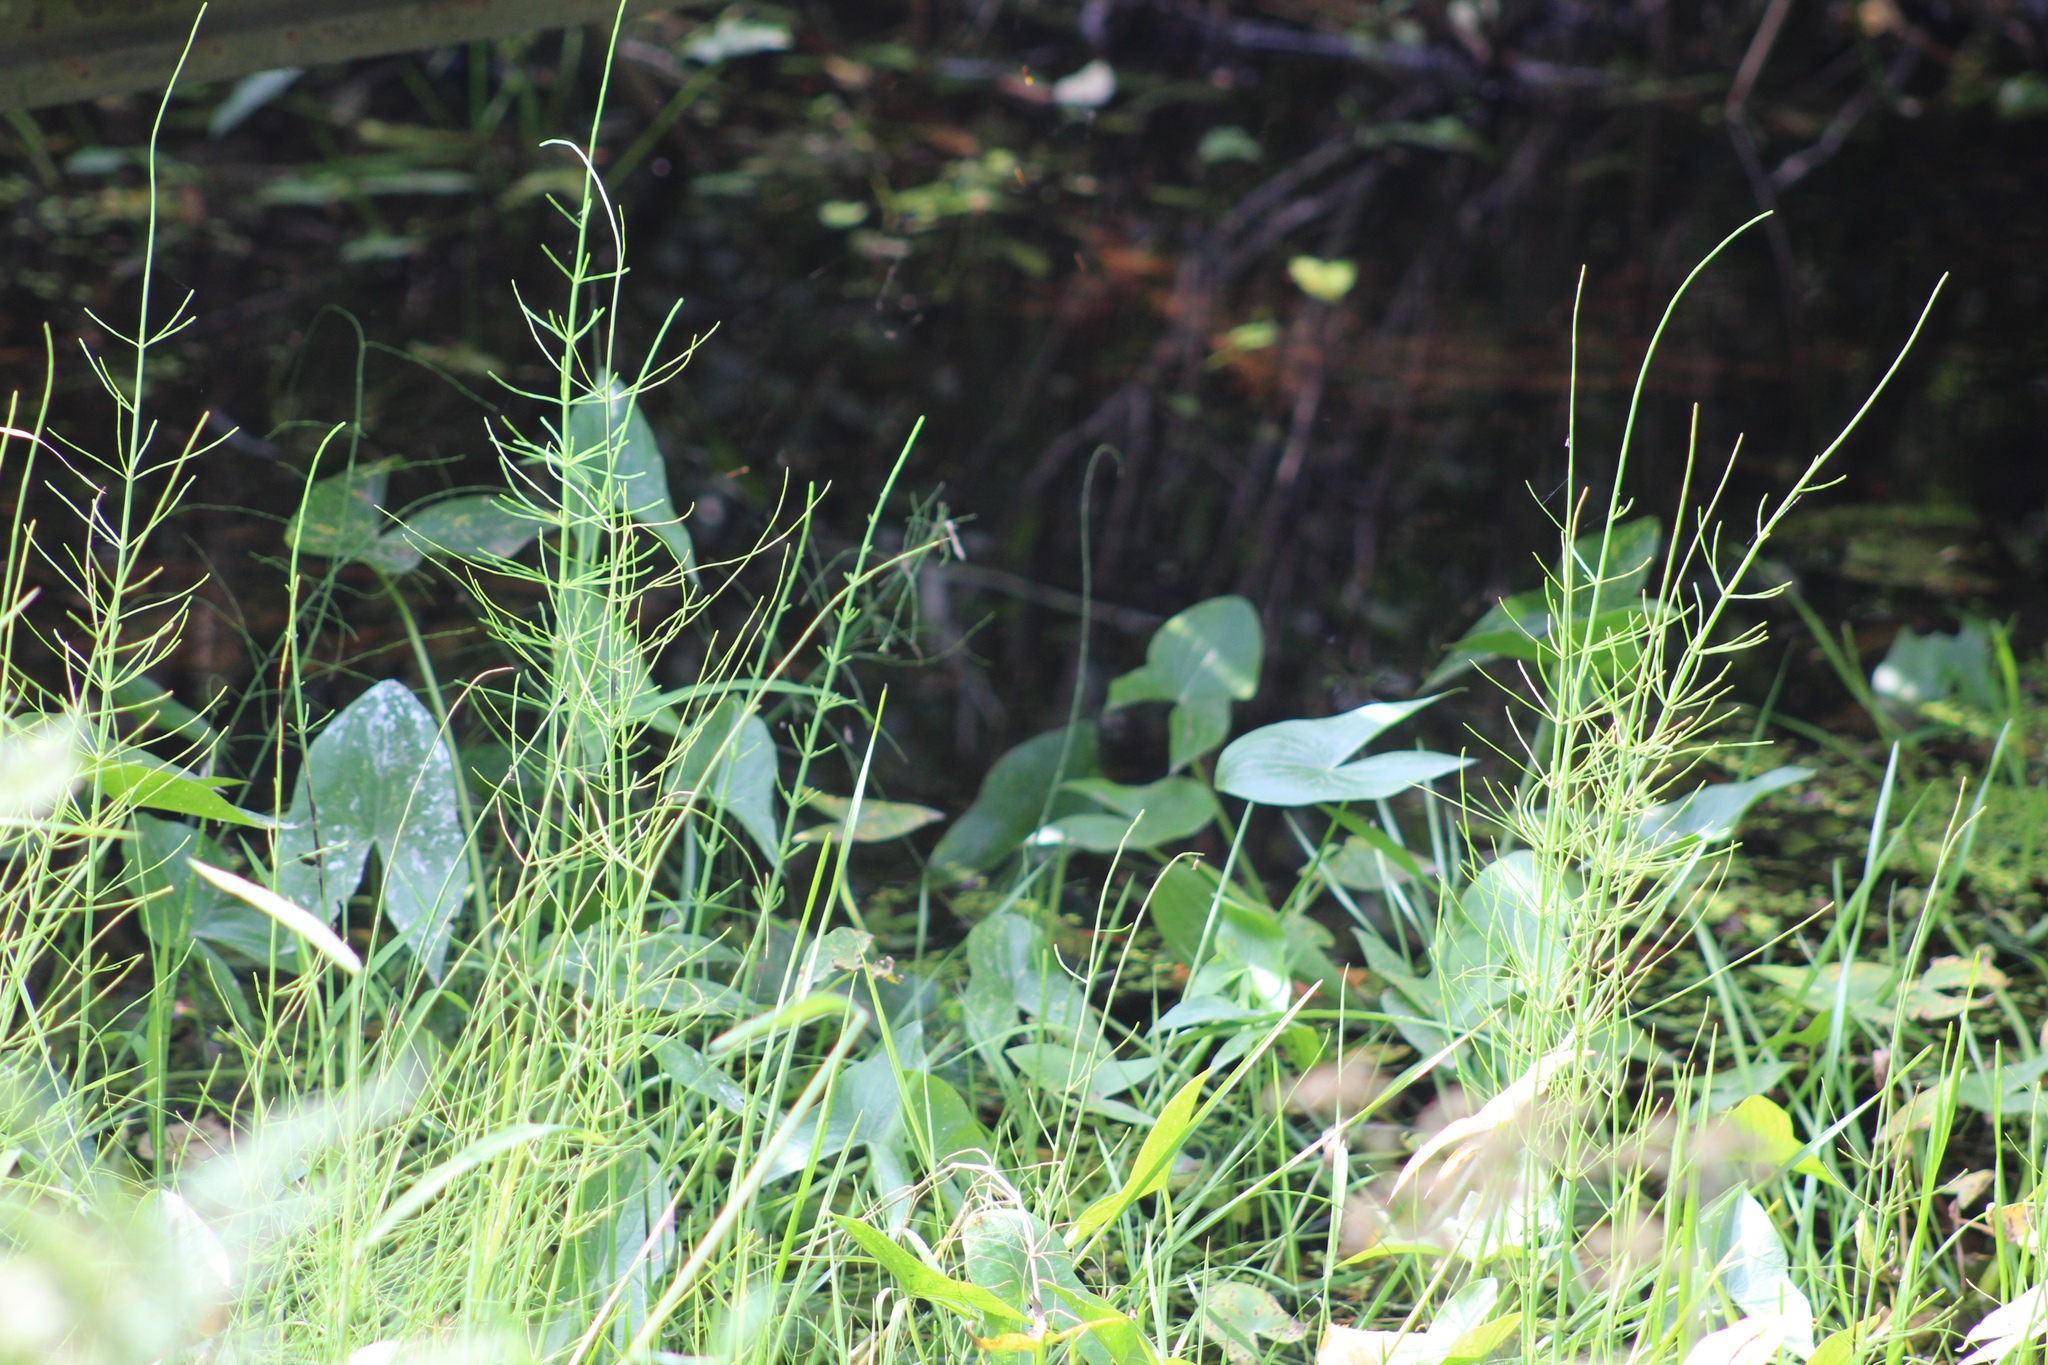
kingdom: Plantae
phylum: Tracheophyta
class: Polypodiopsida
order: Equisetales
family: Equisetaceae
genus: Equisetum
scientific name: Equisetum fluviatile
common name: Water horsetail
